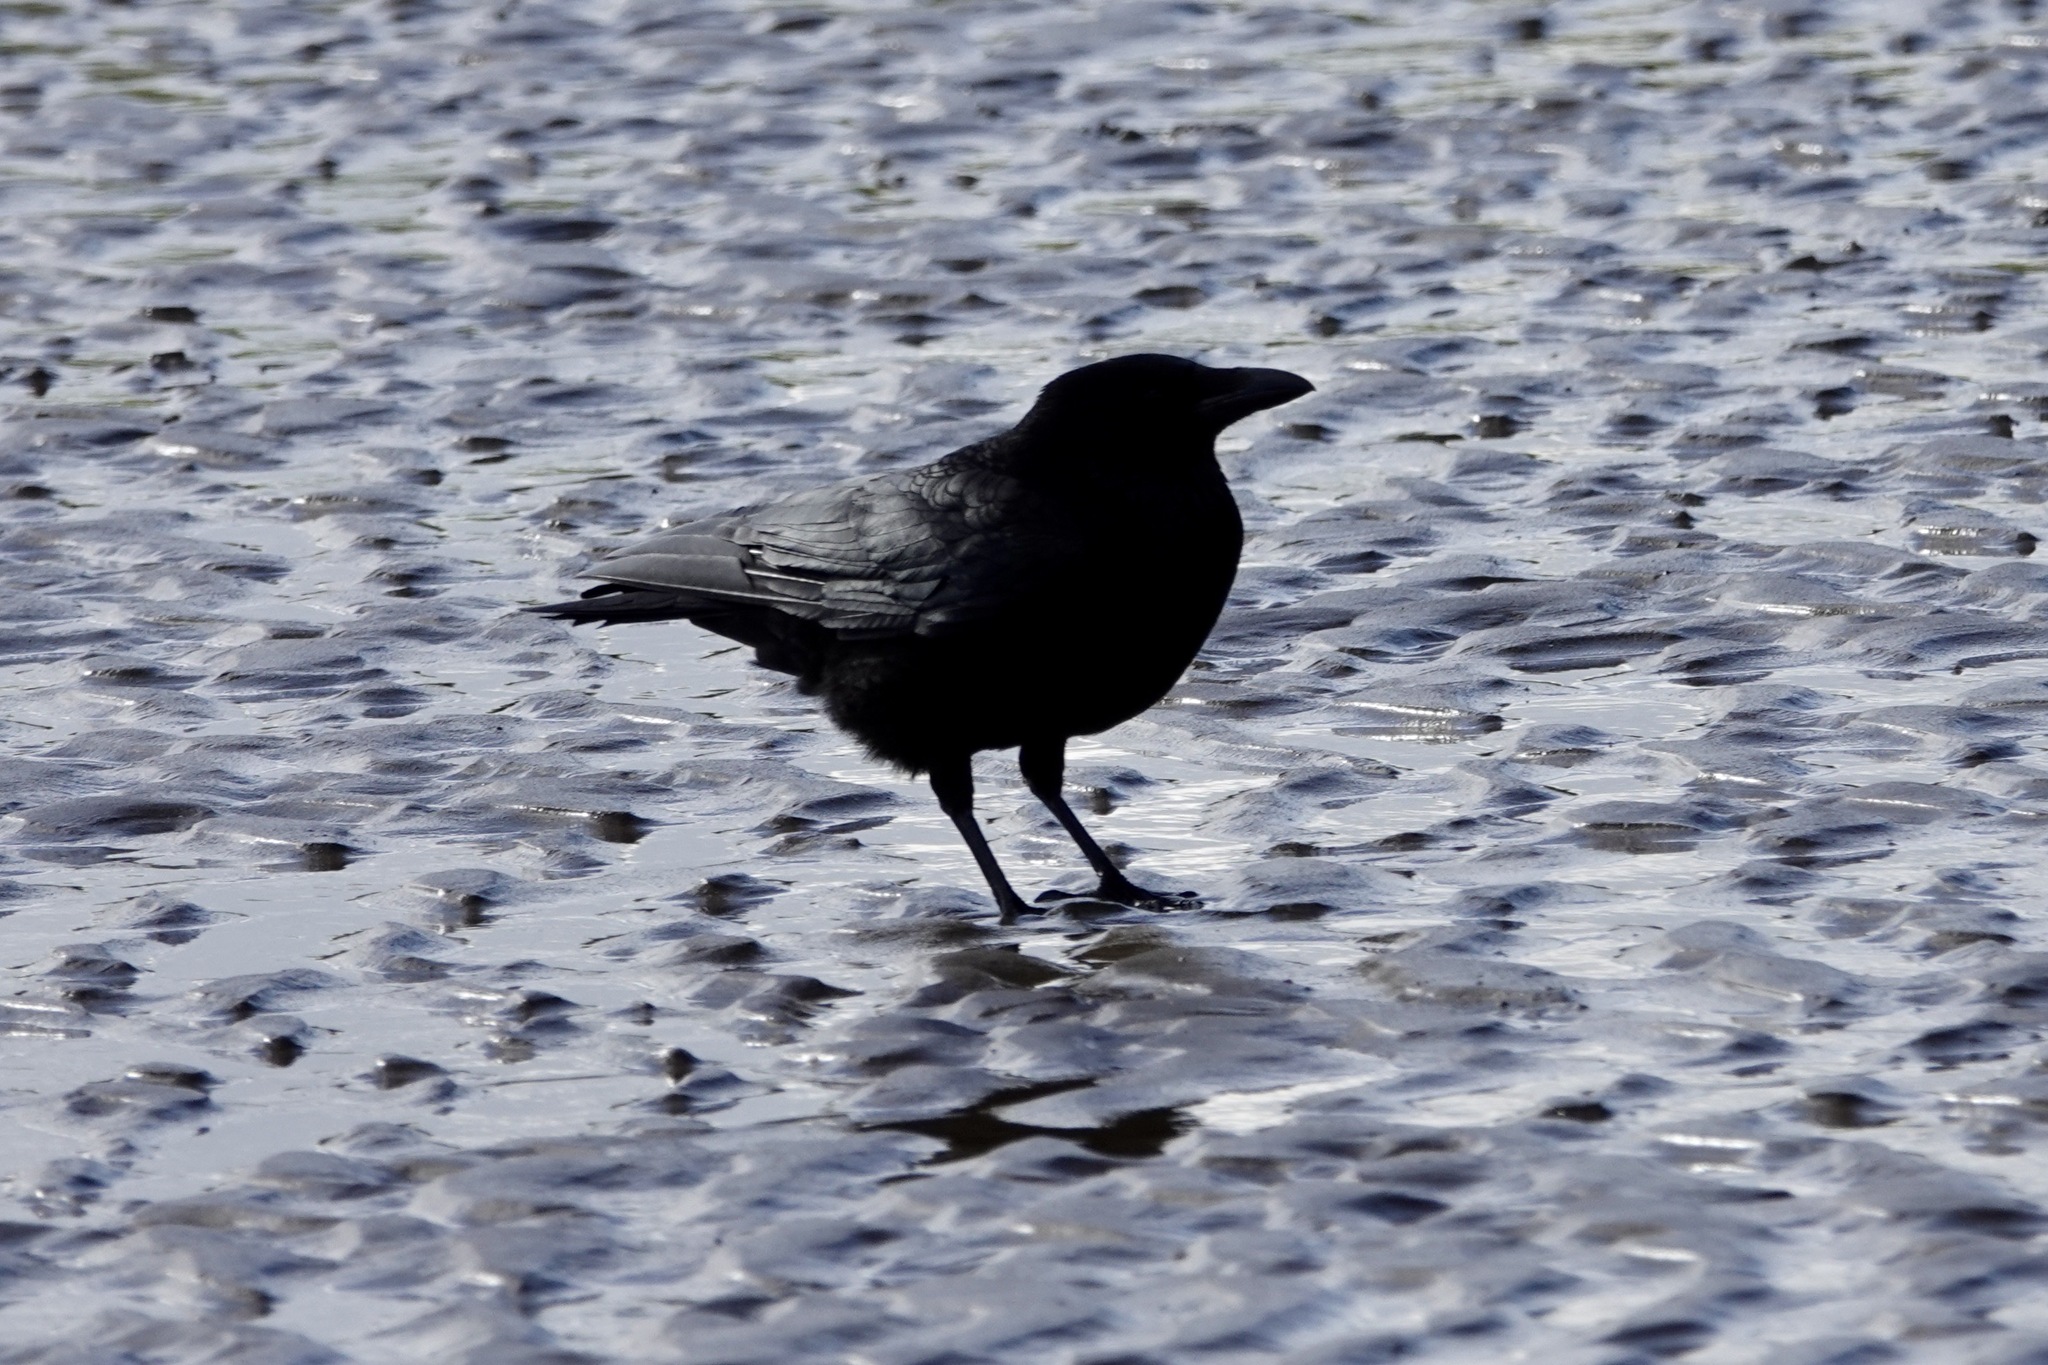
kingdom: Animalia
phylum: Chordata
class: Aves
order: Passeriformes
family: Corvidae
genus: Corvus
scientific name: Corvus corone
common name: Carrion crow
